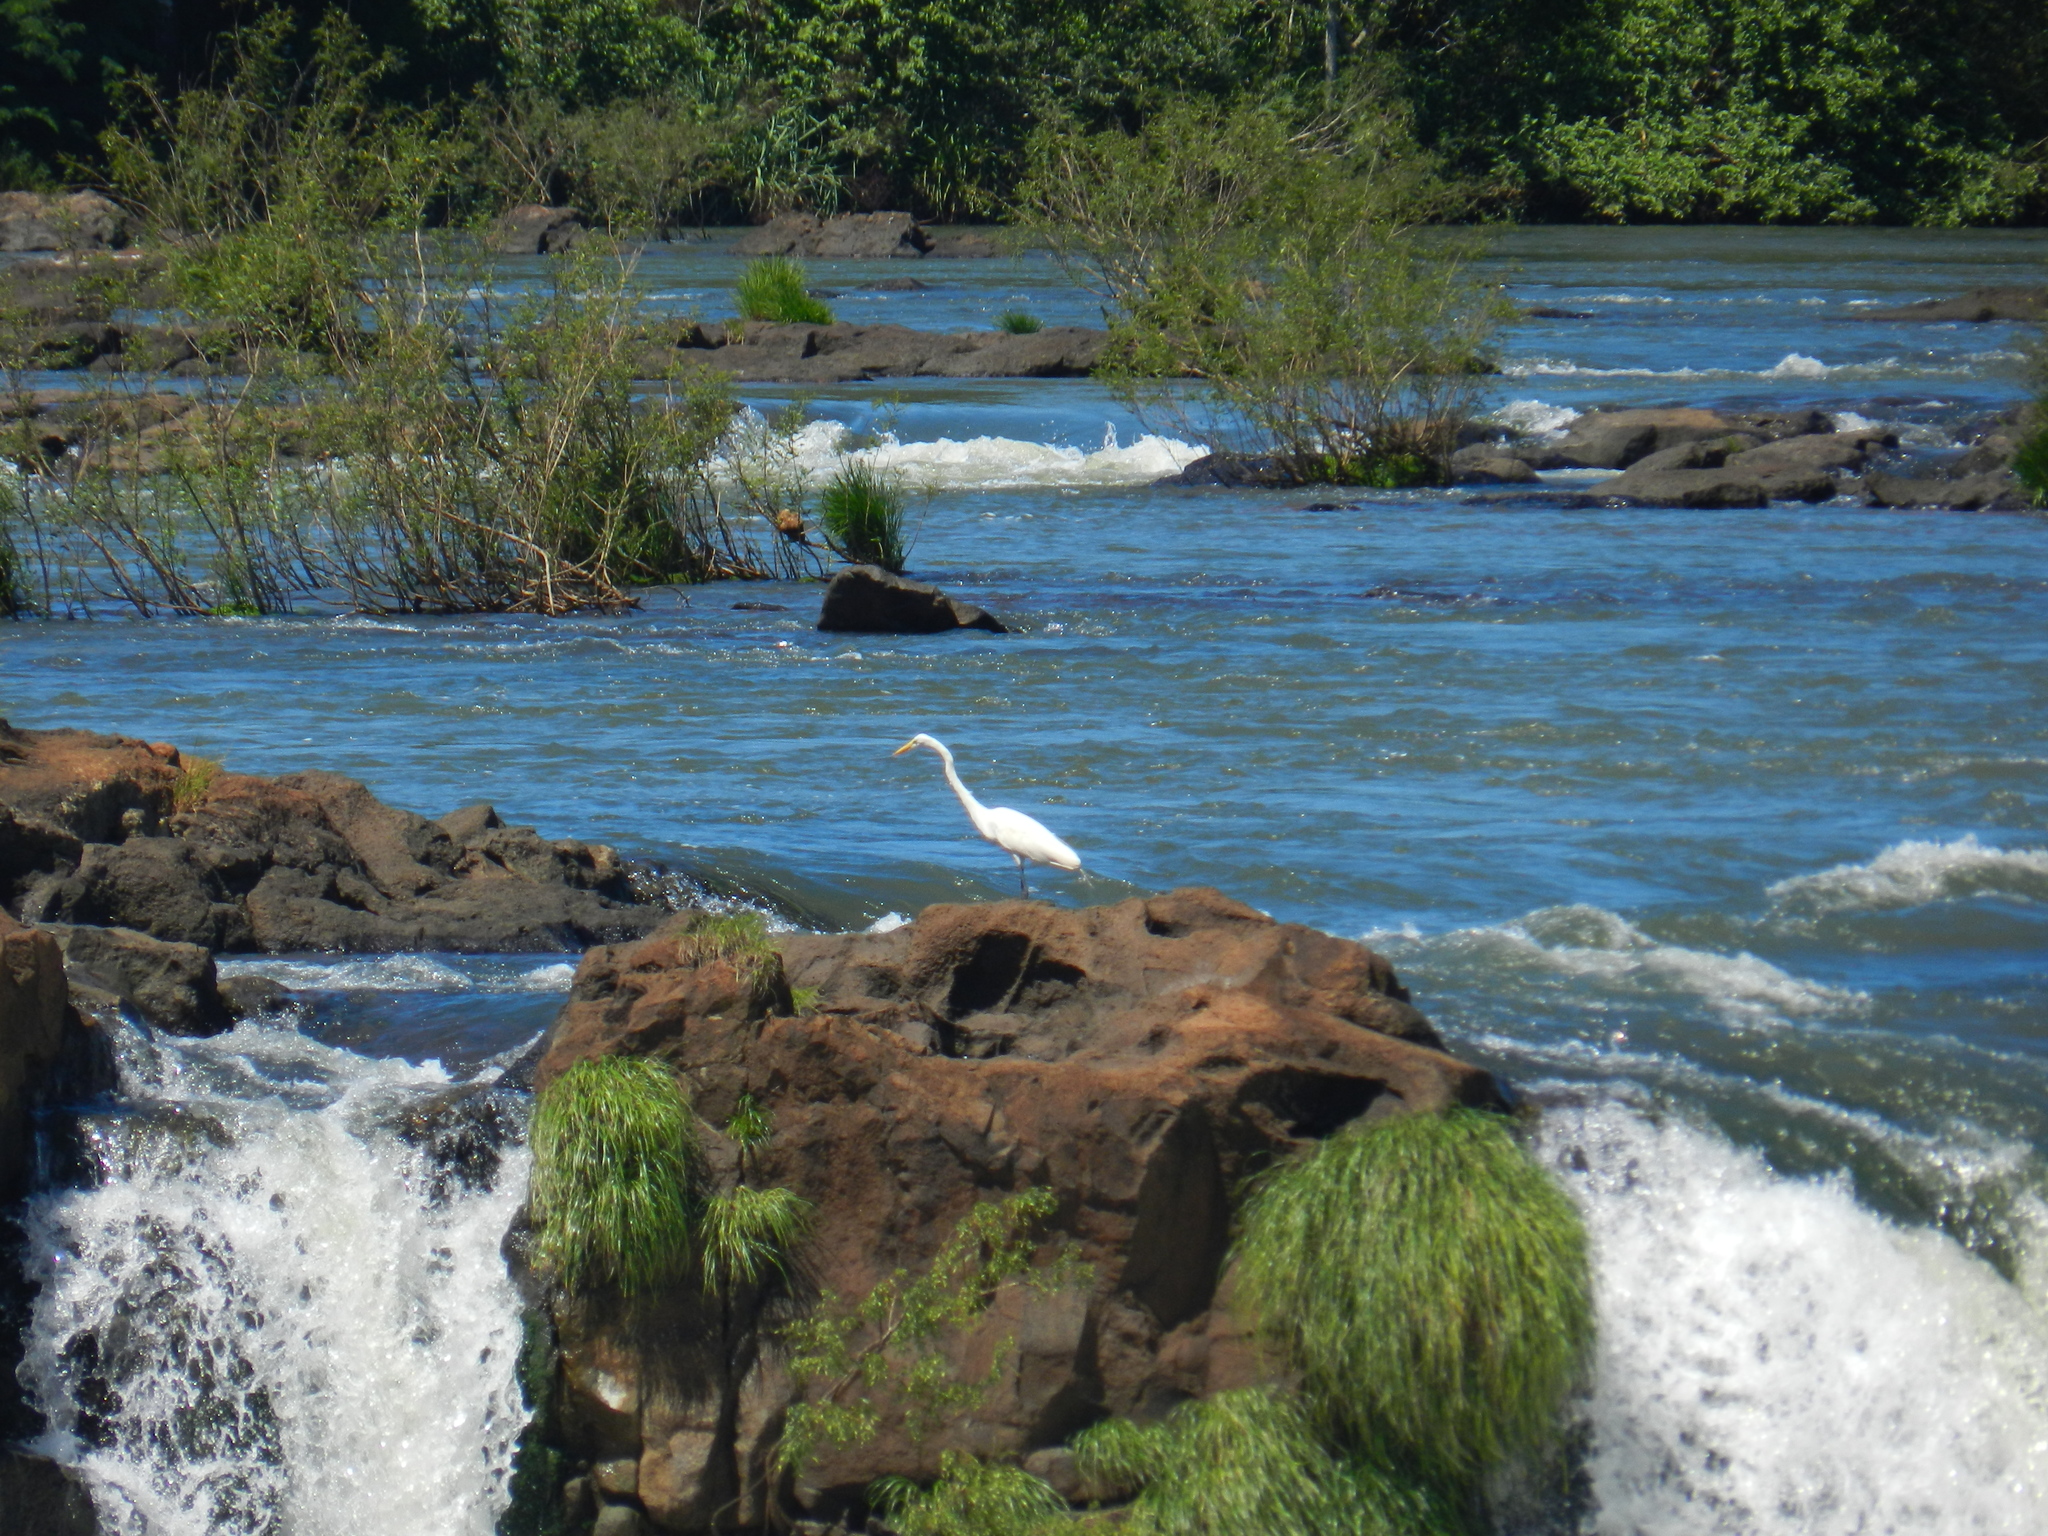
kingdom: Animalia
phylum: Chordata
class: Aves
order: Pelecaniformes
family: Ardeidae
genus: Ardea
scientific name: Ardea alba
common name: Great egret
